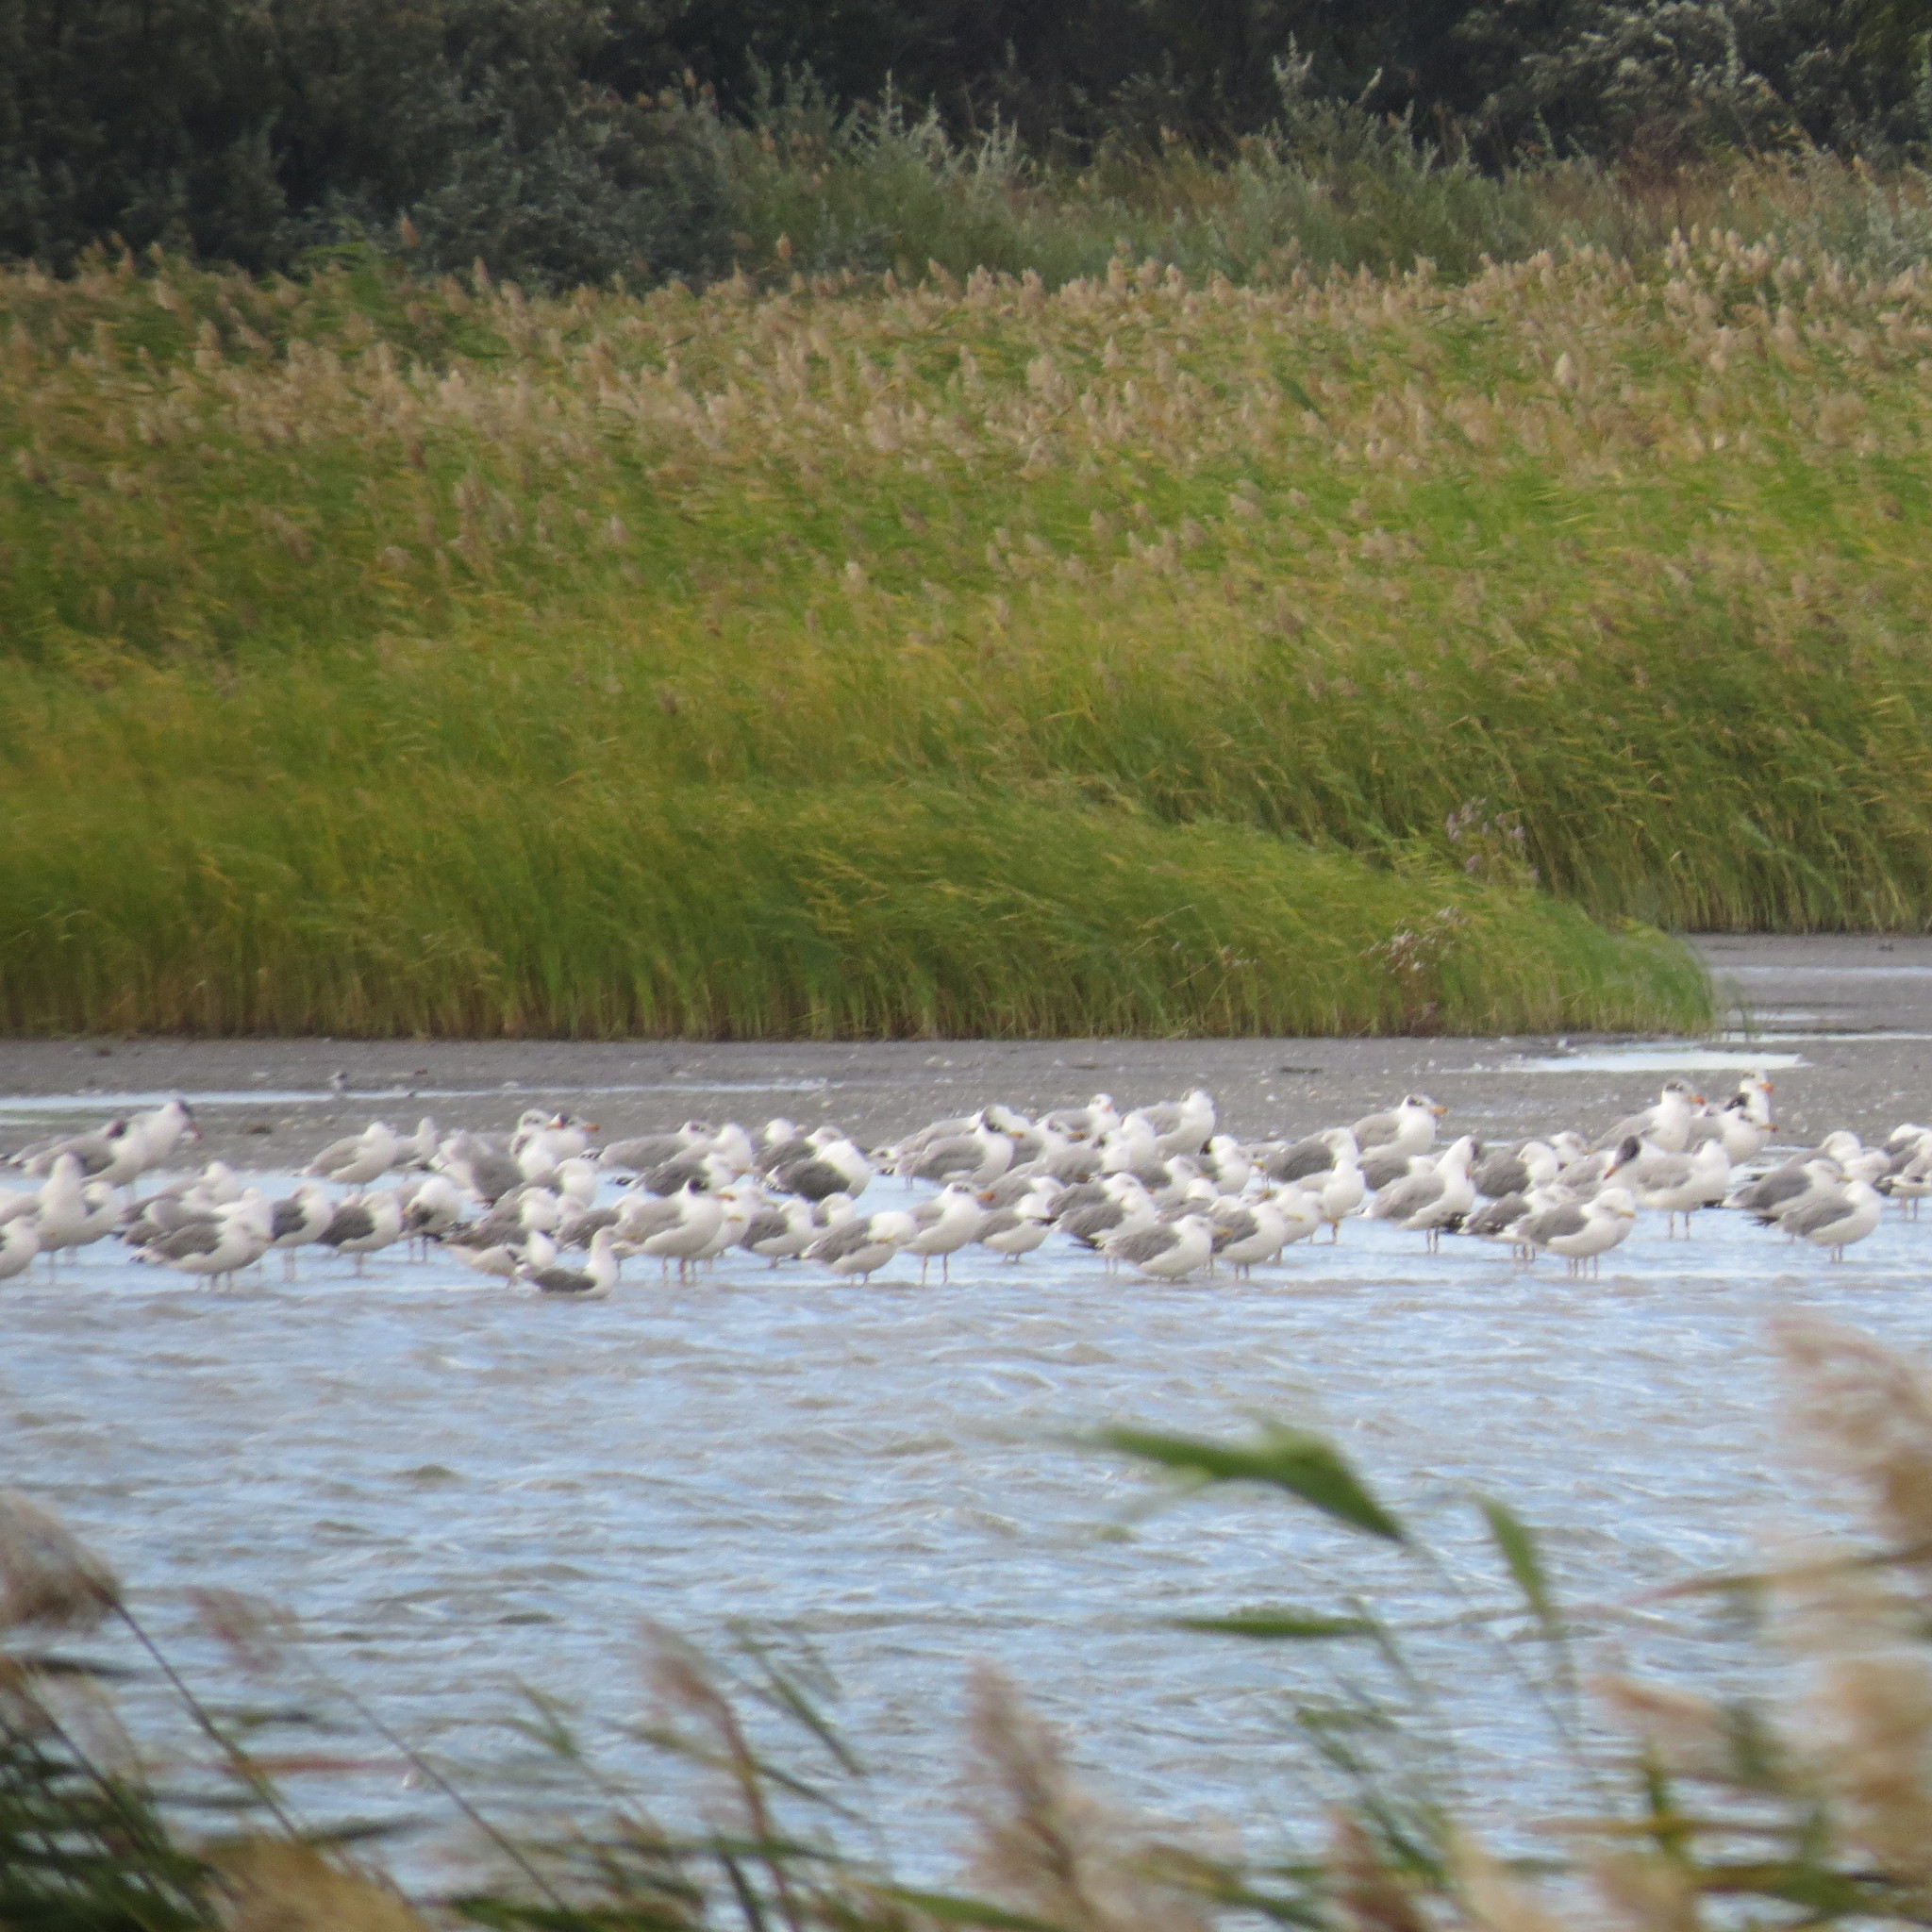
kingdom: Animalia
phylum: Chordata
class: Aves
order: Charadriiformes
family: Laridae
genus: Ichthyaetus
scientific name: Ichthyaetus ichthyaetus
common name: Pallas's gull
